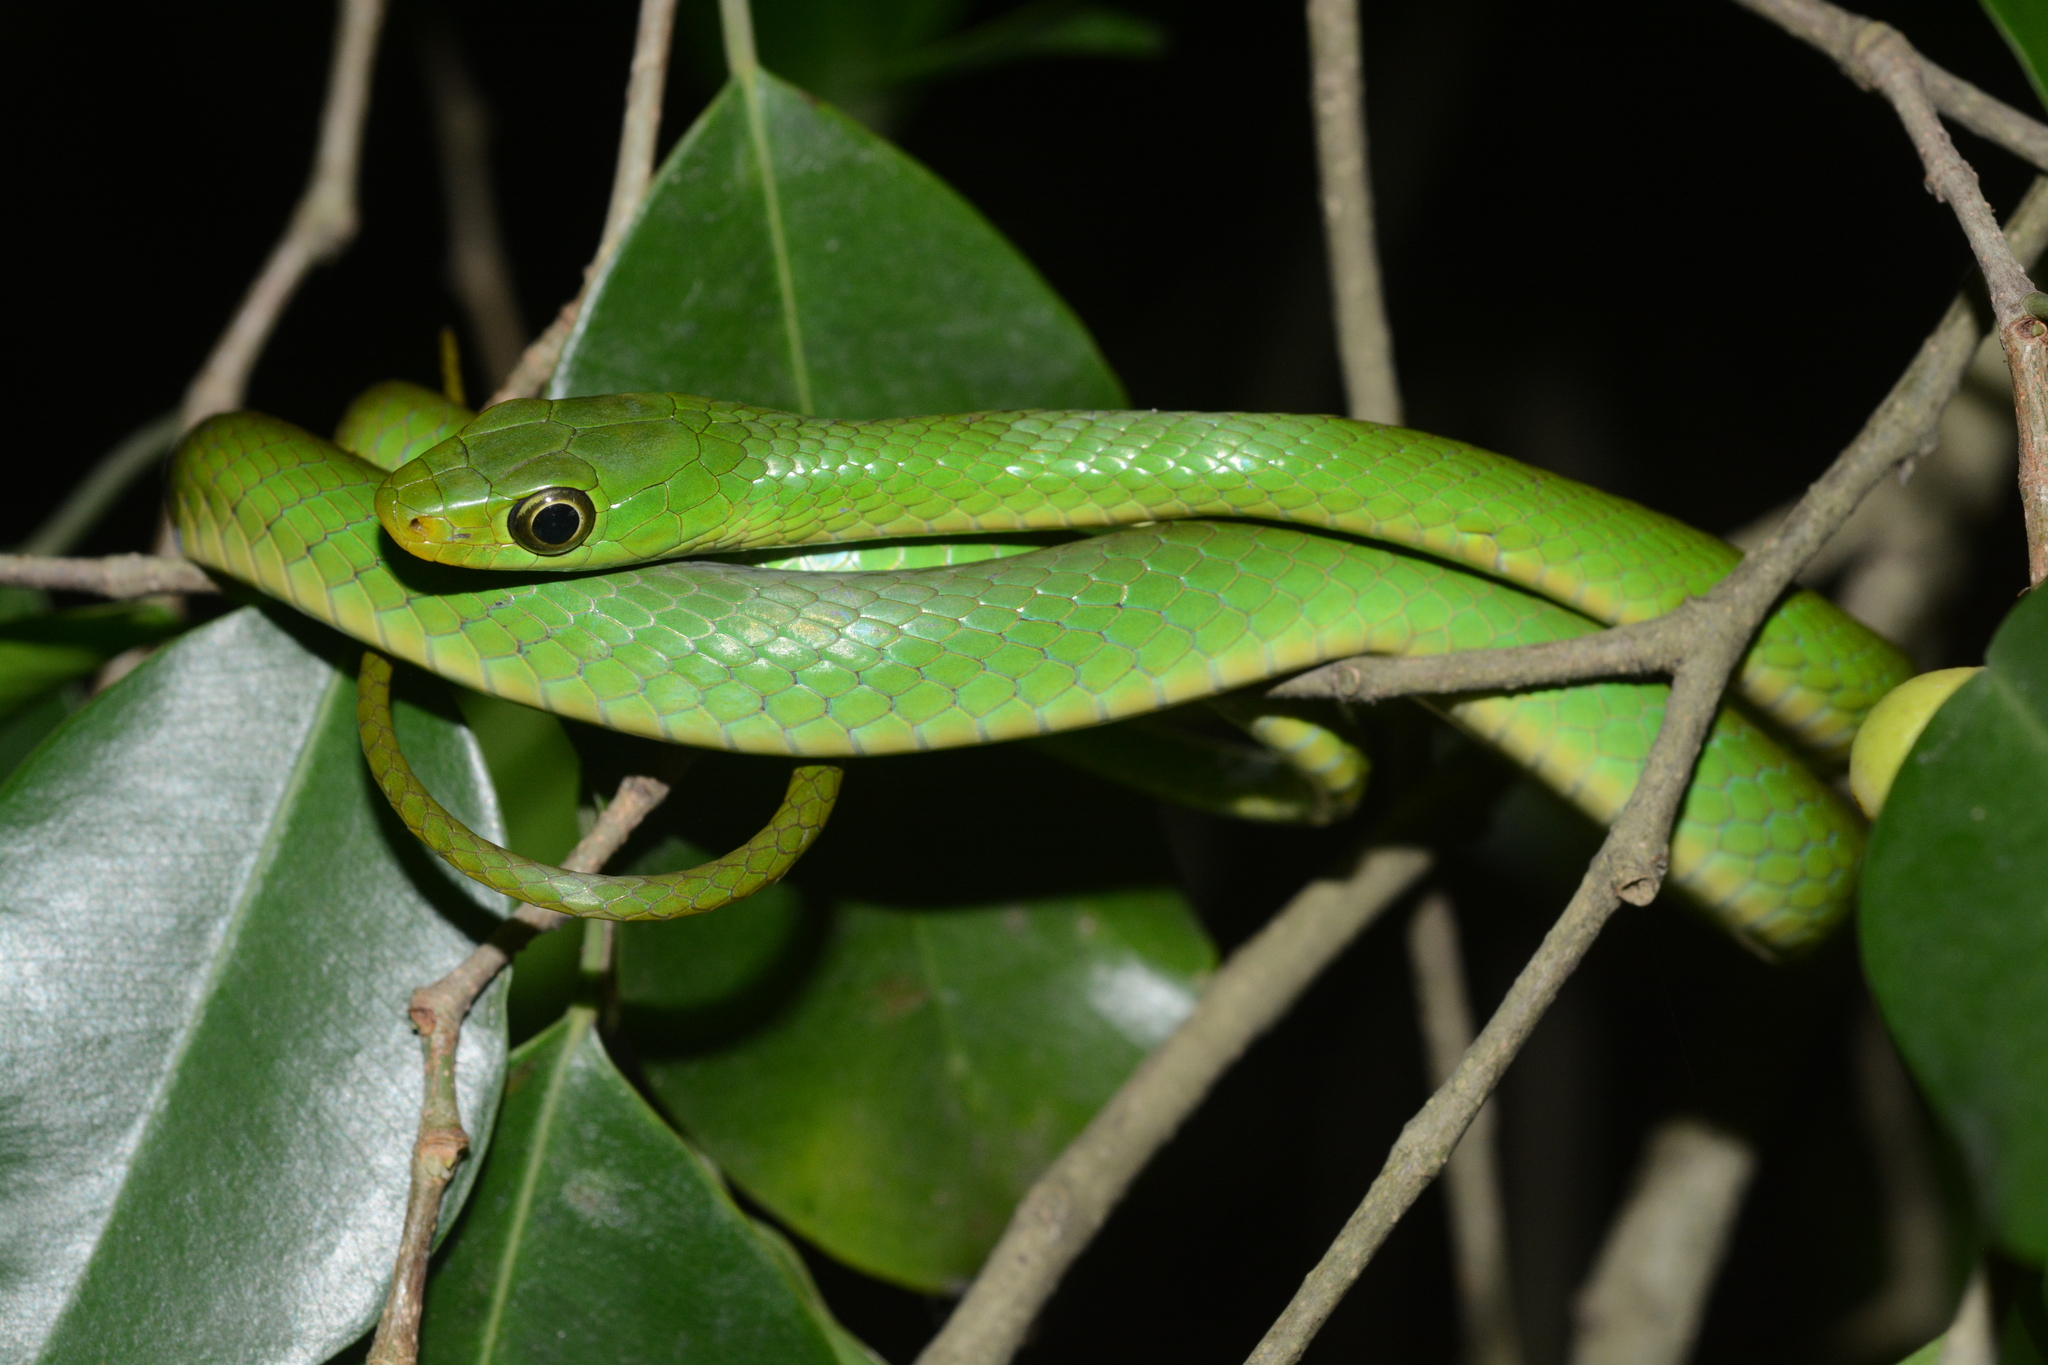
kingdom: Animalia
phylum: Chordata
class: Squamata
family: Colubridae
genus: Philothamnus
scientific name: Philothamnus hoplogaster
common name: Green water snake
